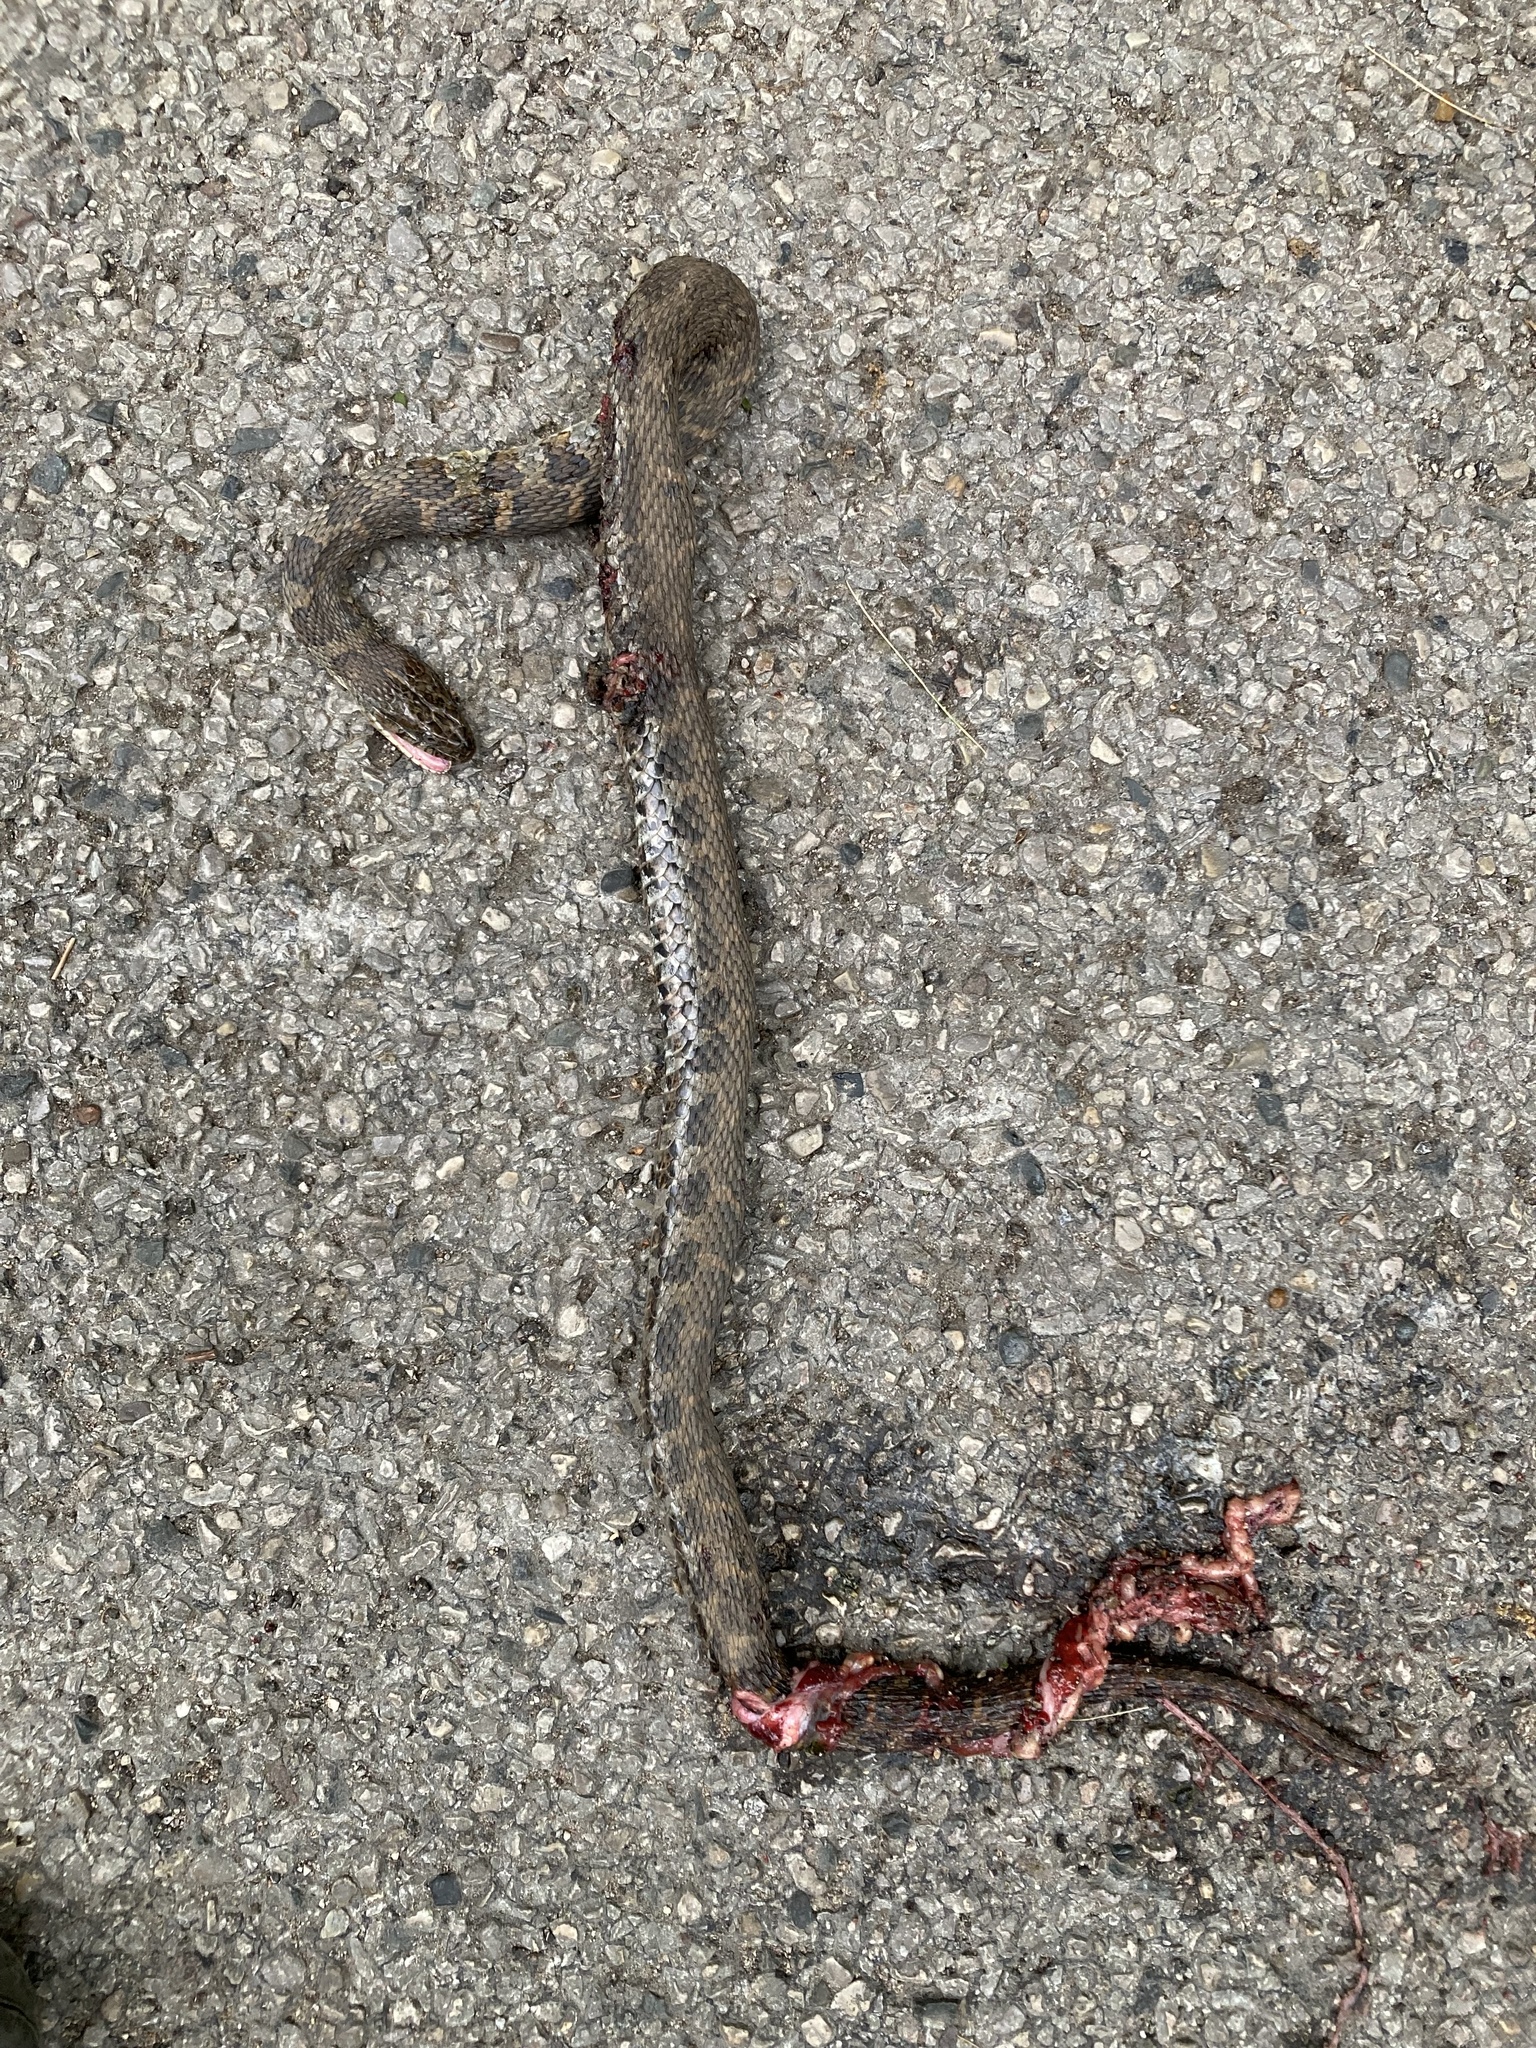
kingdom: Animalia
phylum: Chordata
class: Squamata
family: Colubridae
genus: Nerodia
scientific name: Nerodia sipedon
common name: Northern water snake
